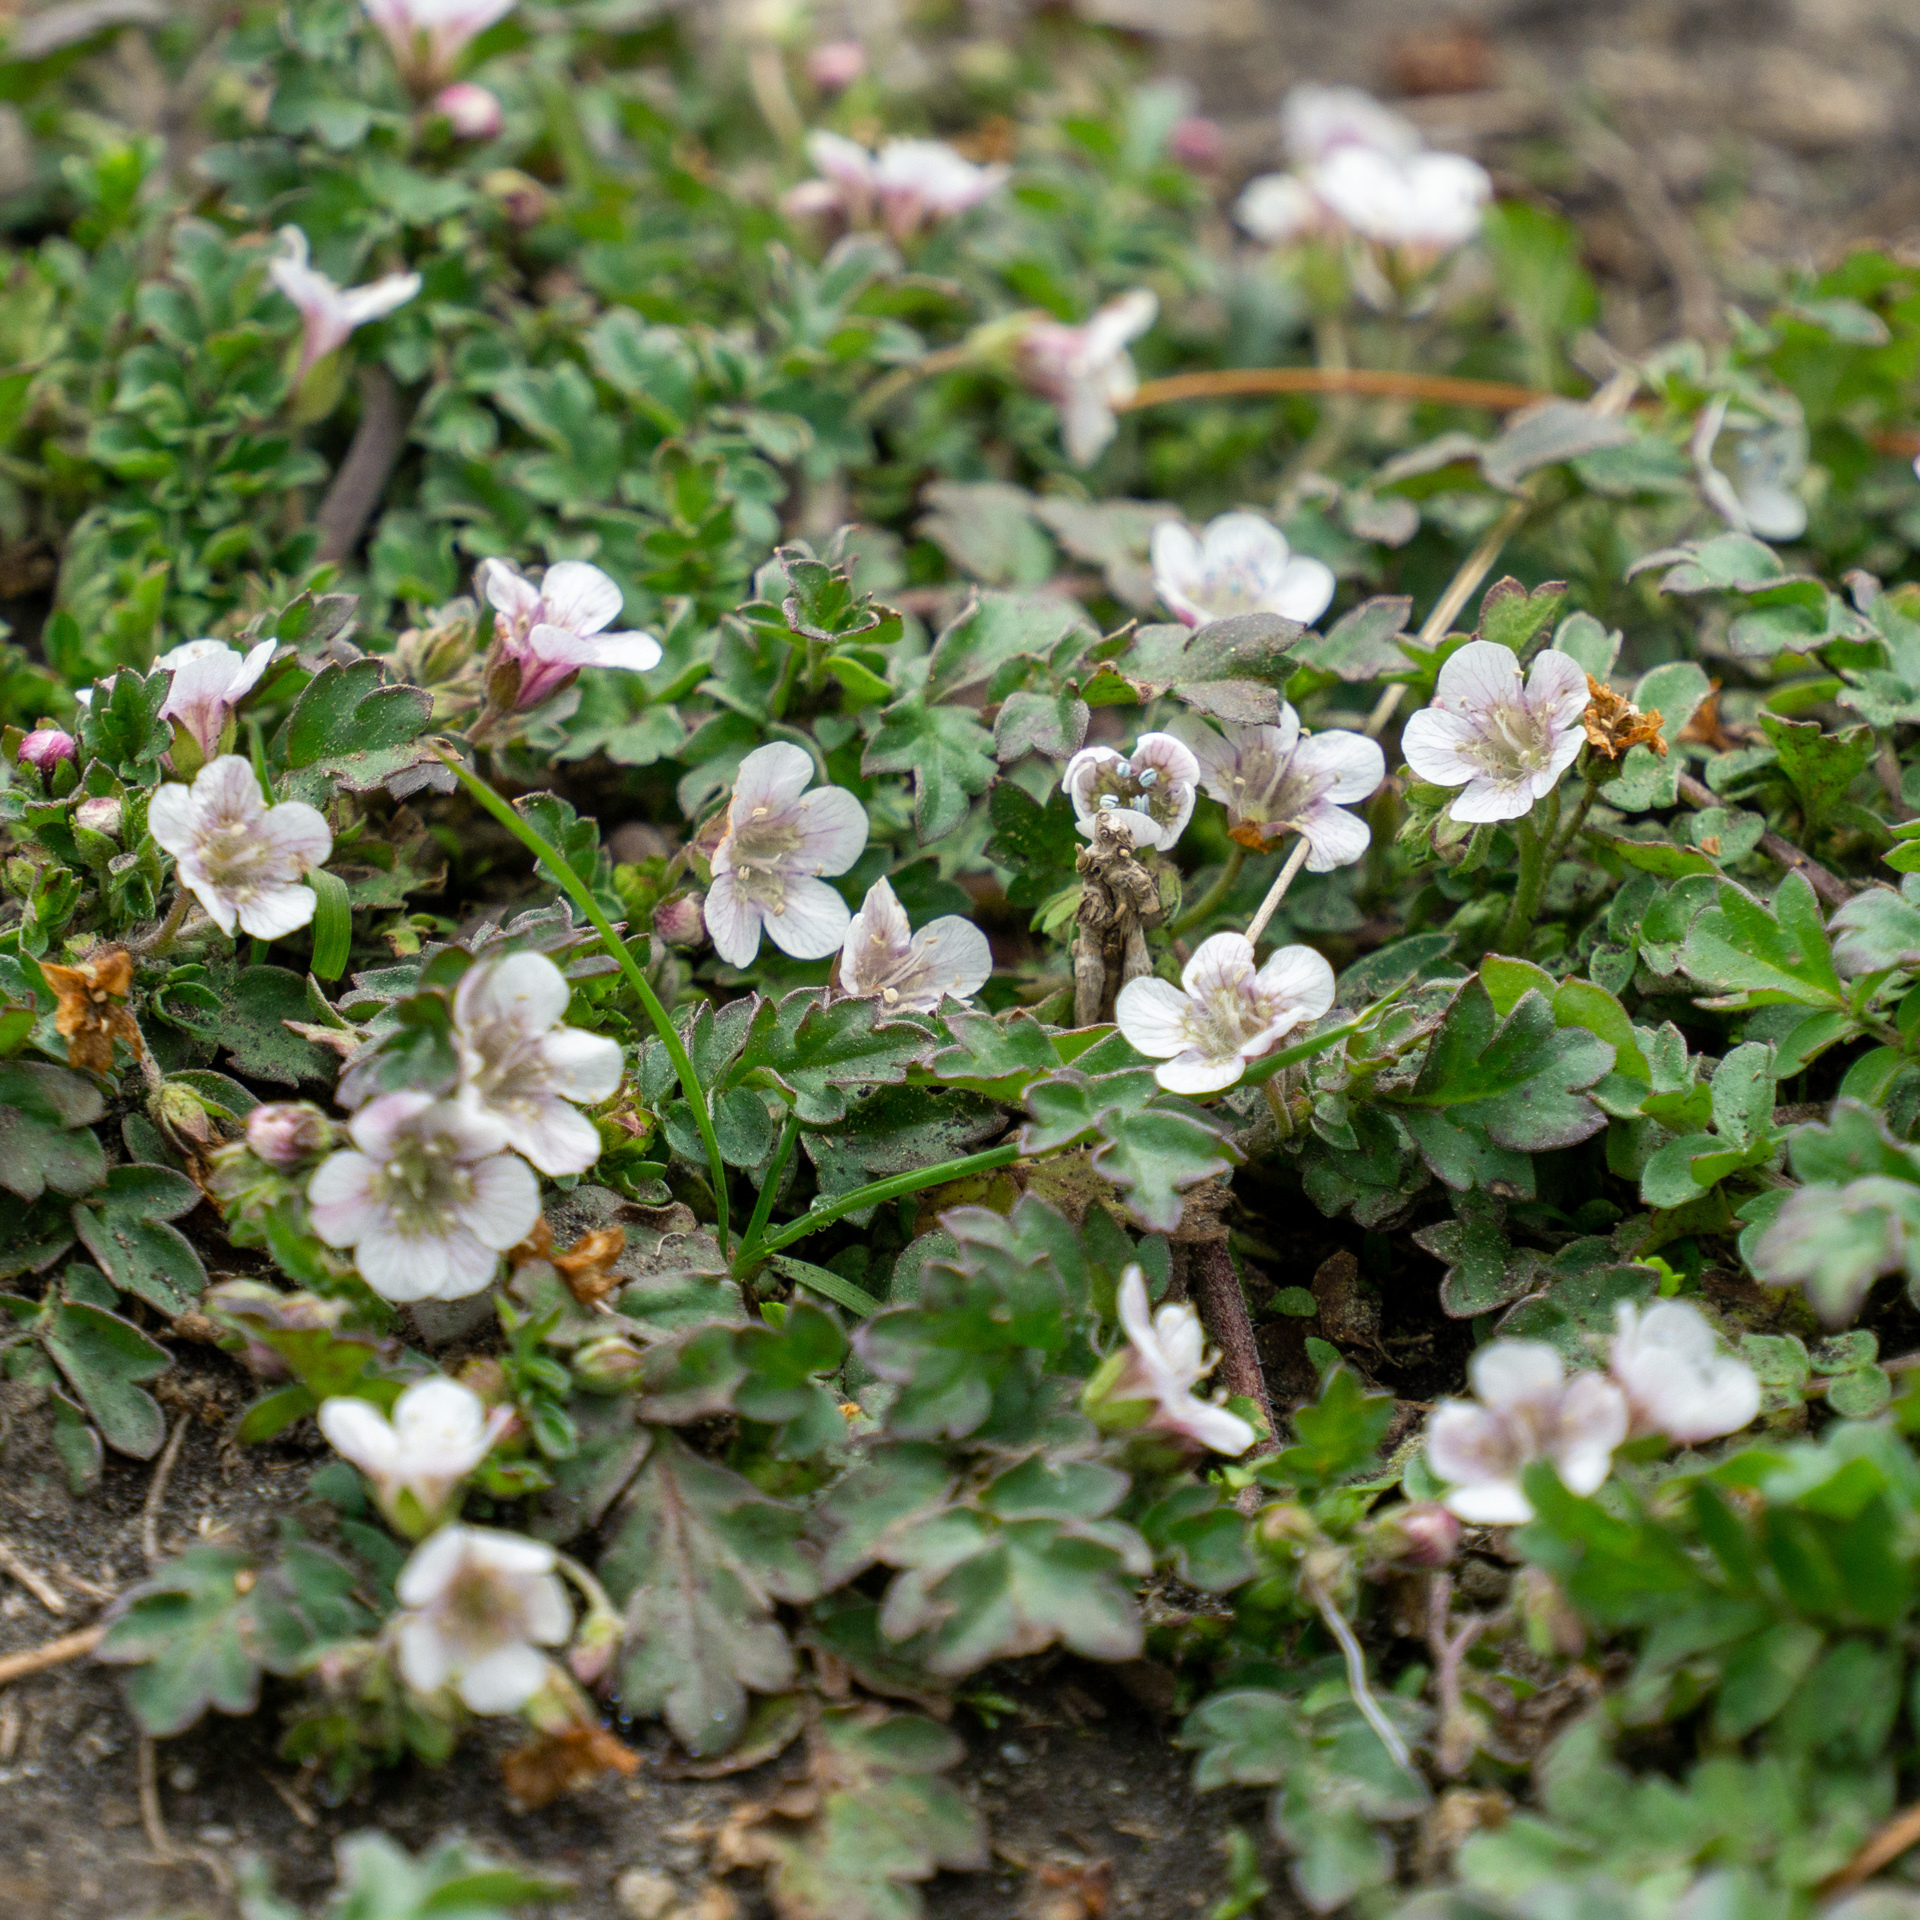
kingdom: Plantae
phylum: Tracheophyta
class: Magnoliopsida
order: Boraginales
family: Hydrophyllaceae
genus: Phacelia
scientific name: Phacelia platycarpa
